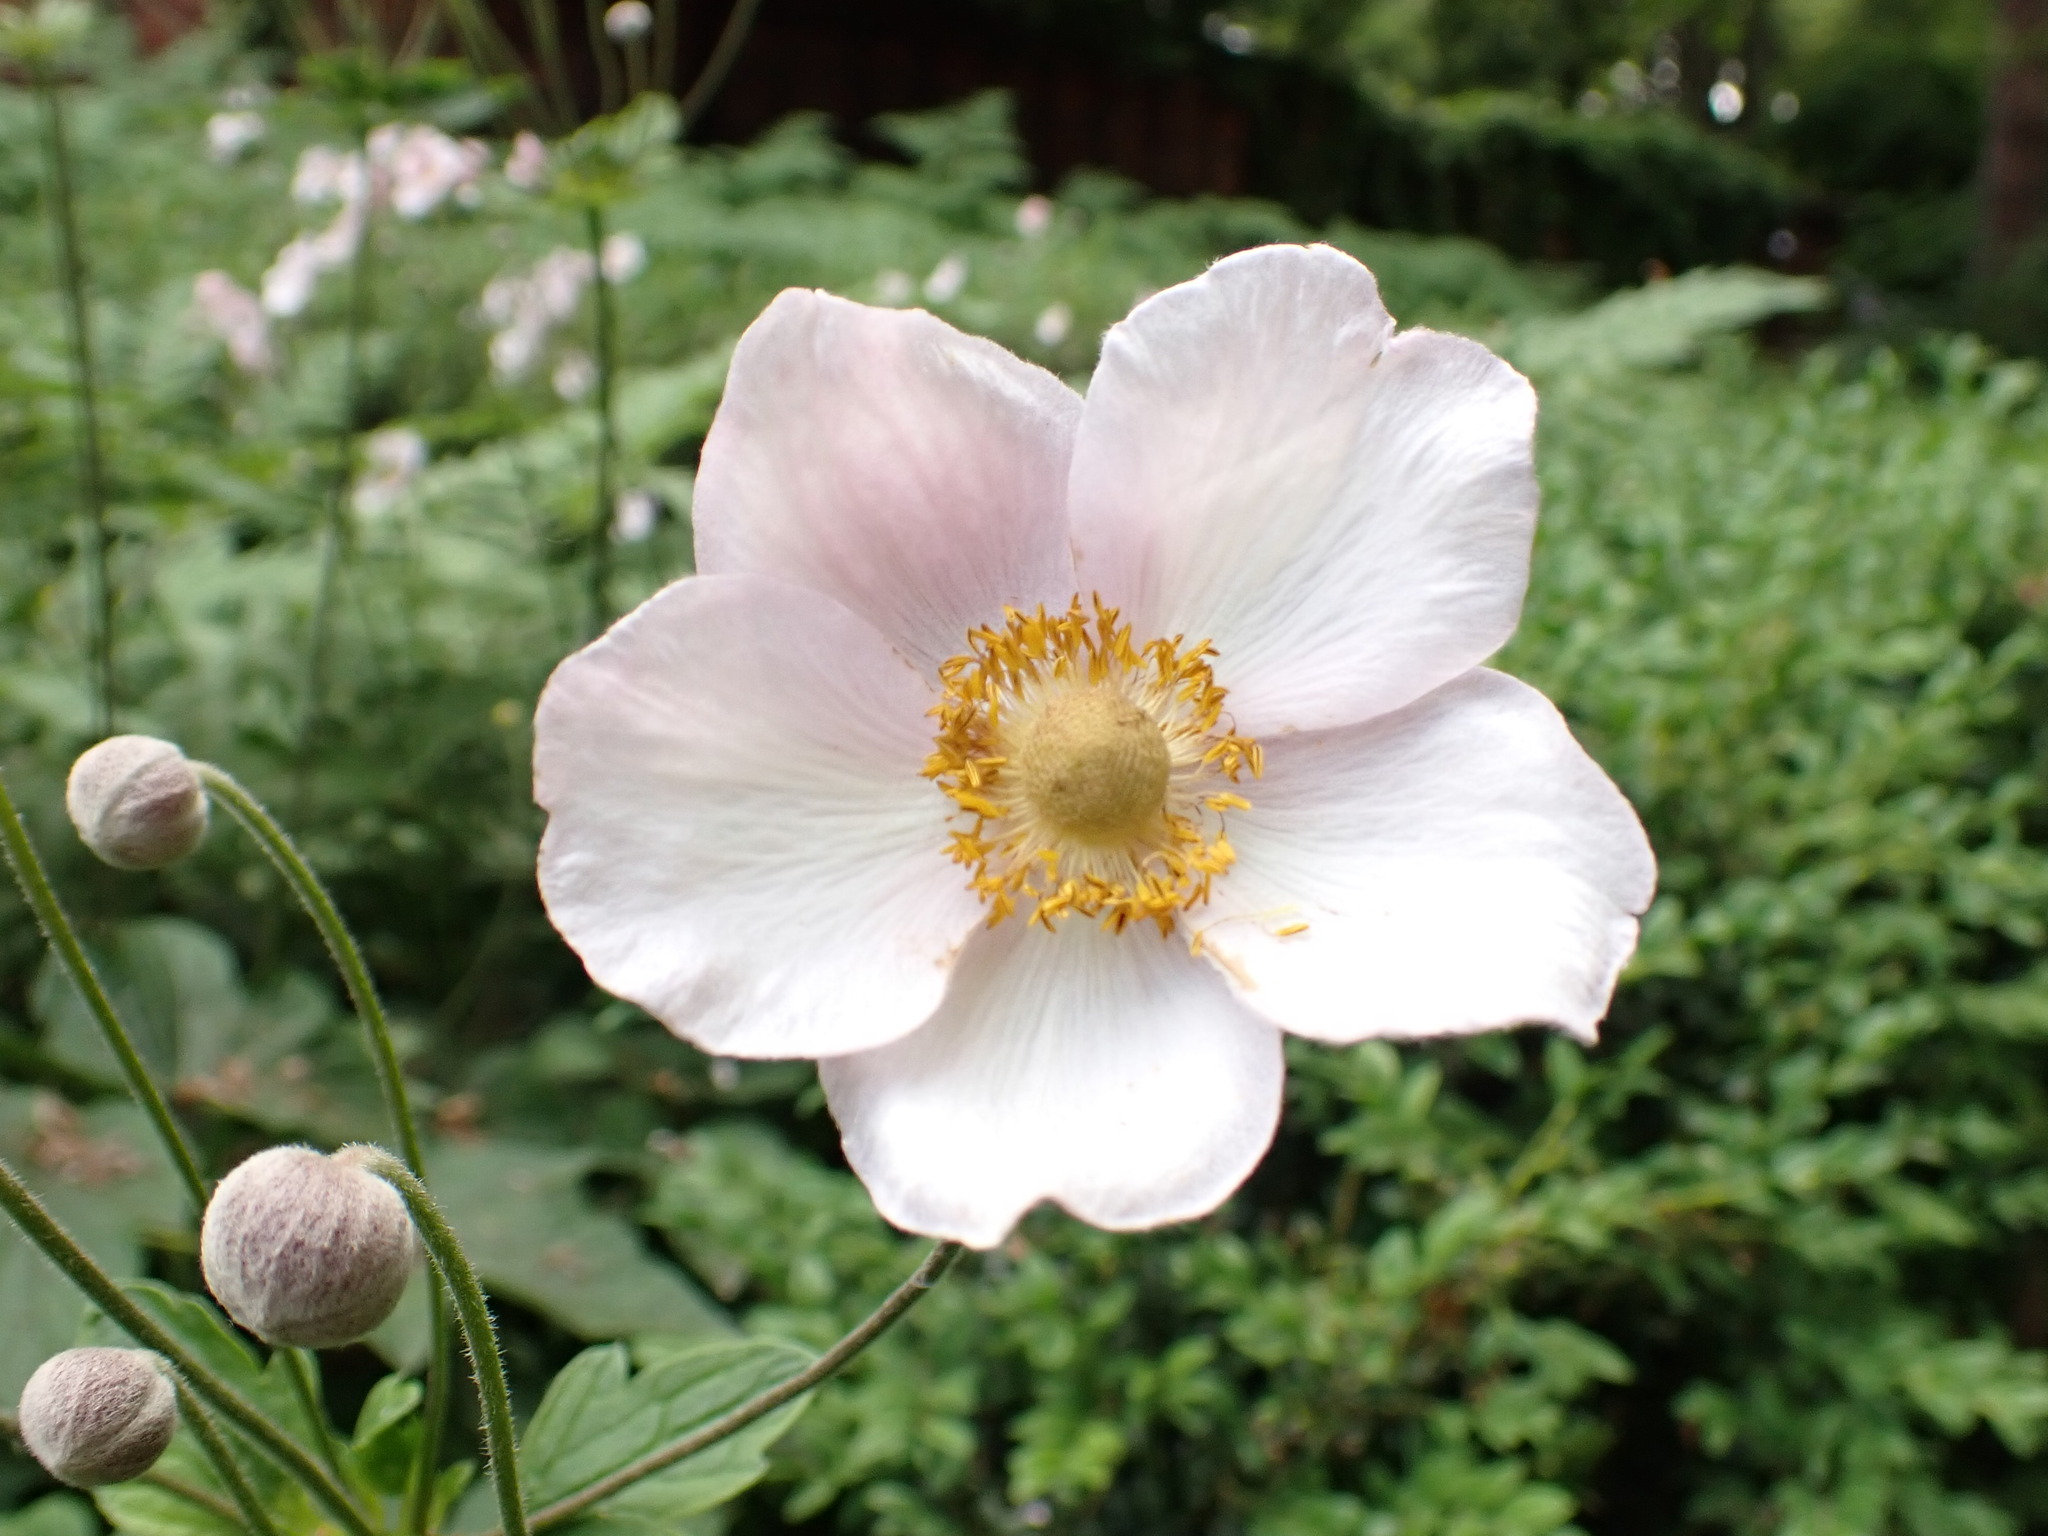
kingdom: Plantae
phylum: Tracheophyta
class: Magnoliopsida
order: Ranunculales
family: Ranunculaceae
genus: Eriocapitella
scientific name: Eriocapitella hupehensis
